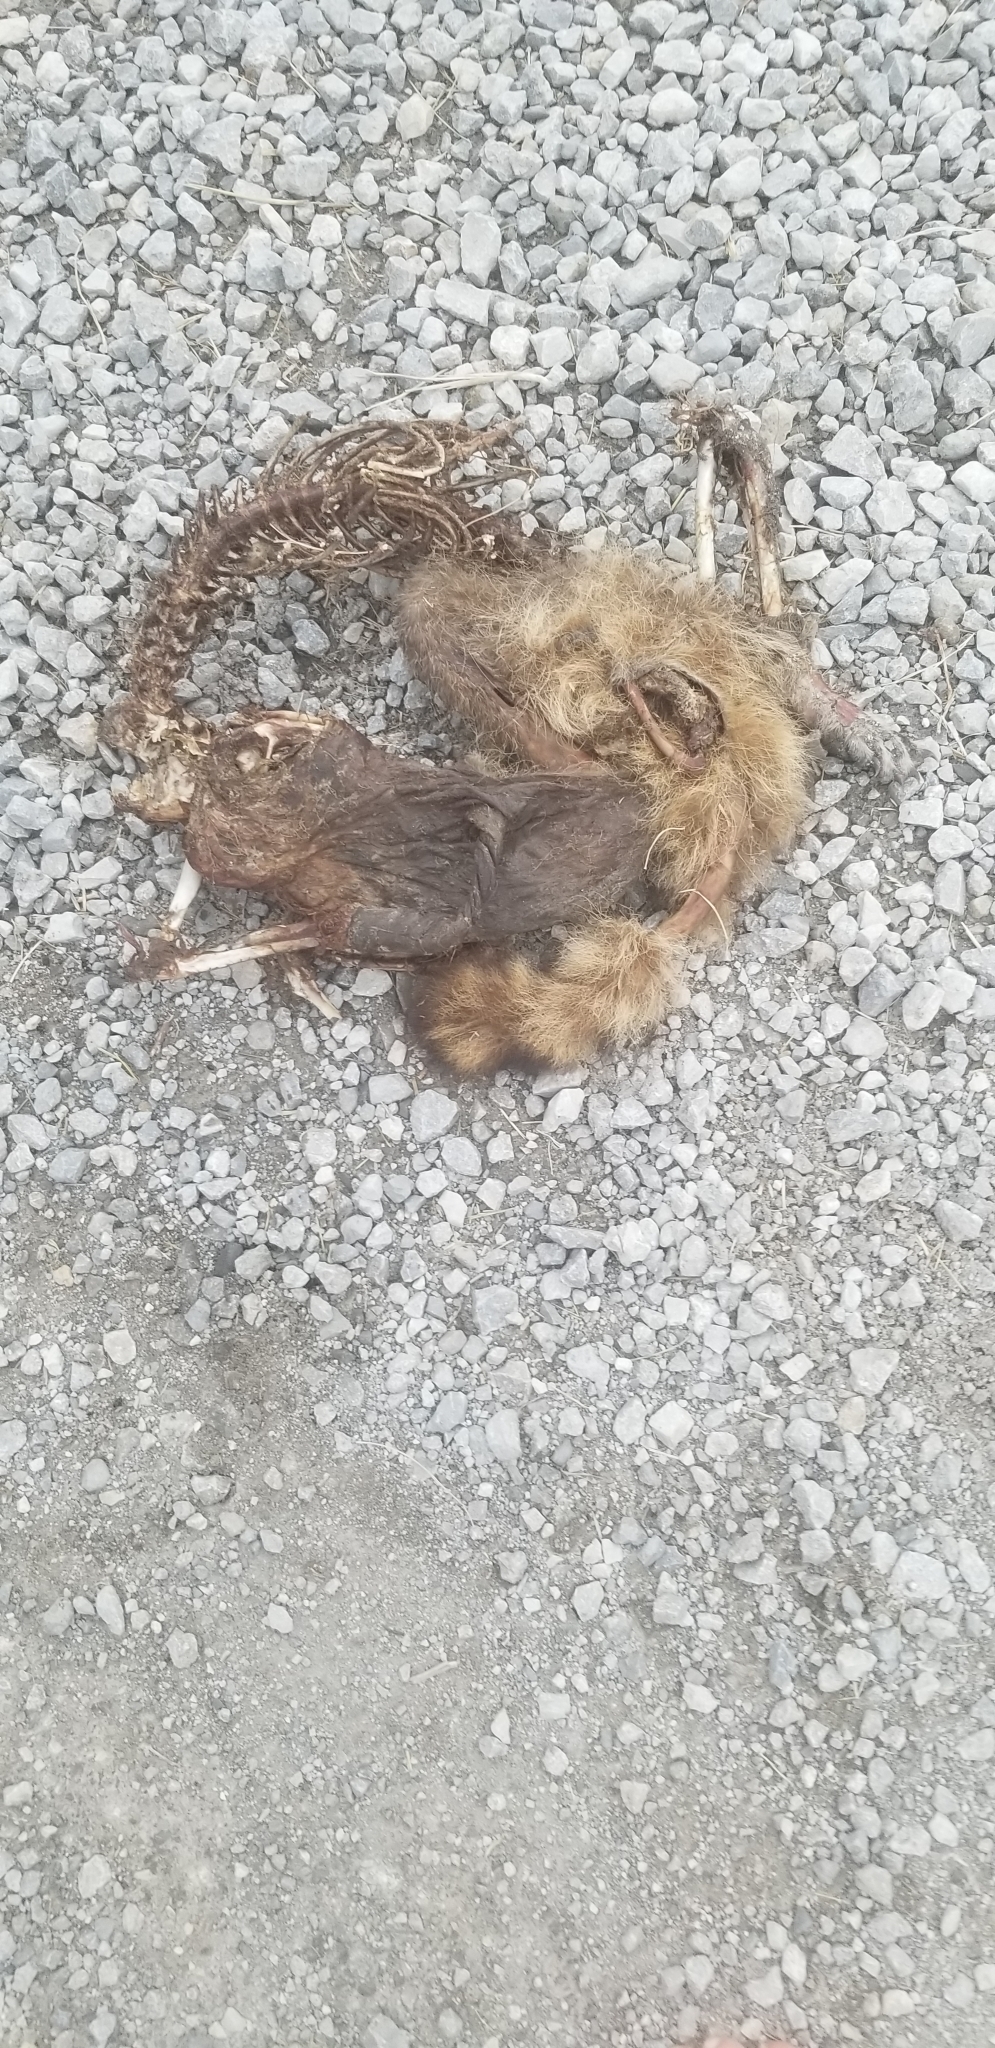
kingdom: Animalia
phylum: Chordata
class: Mammalia
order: Carnivora
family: Procyonidae
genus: Procyon
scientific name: Procyon lotor
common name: Raccoon
